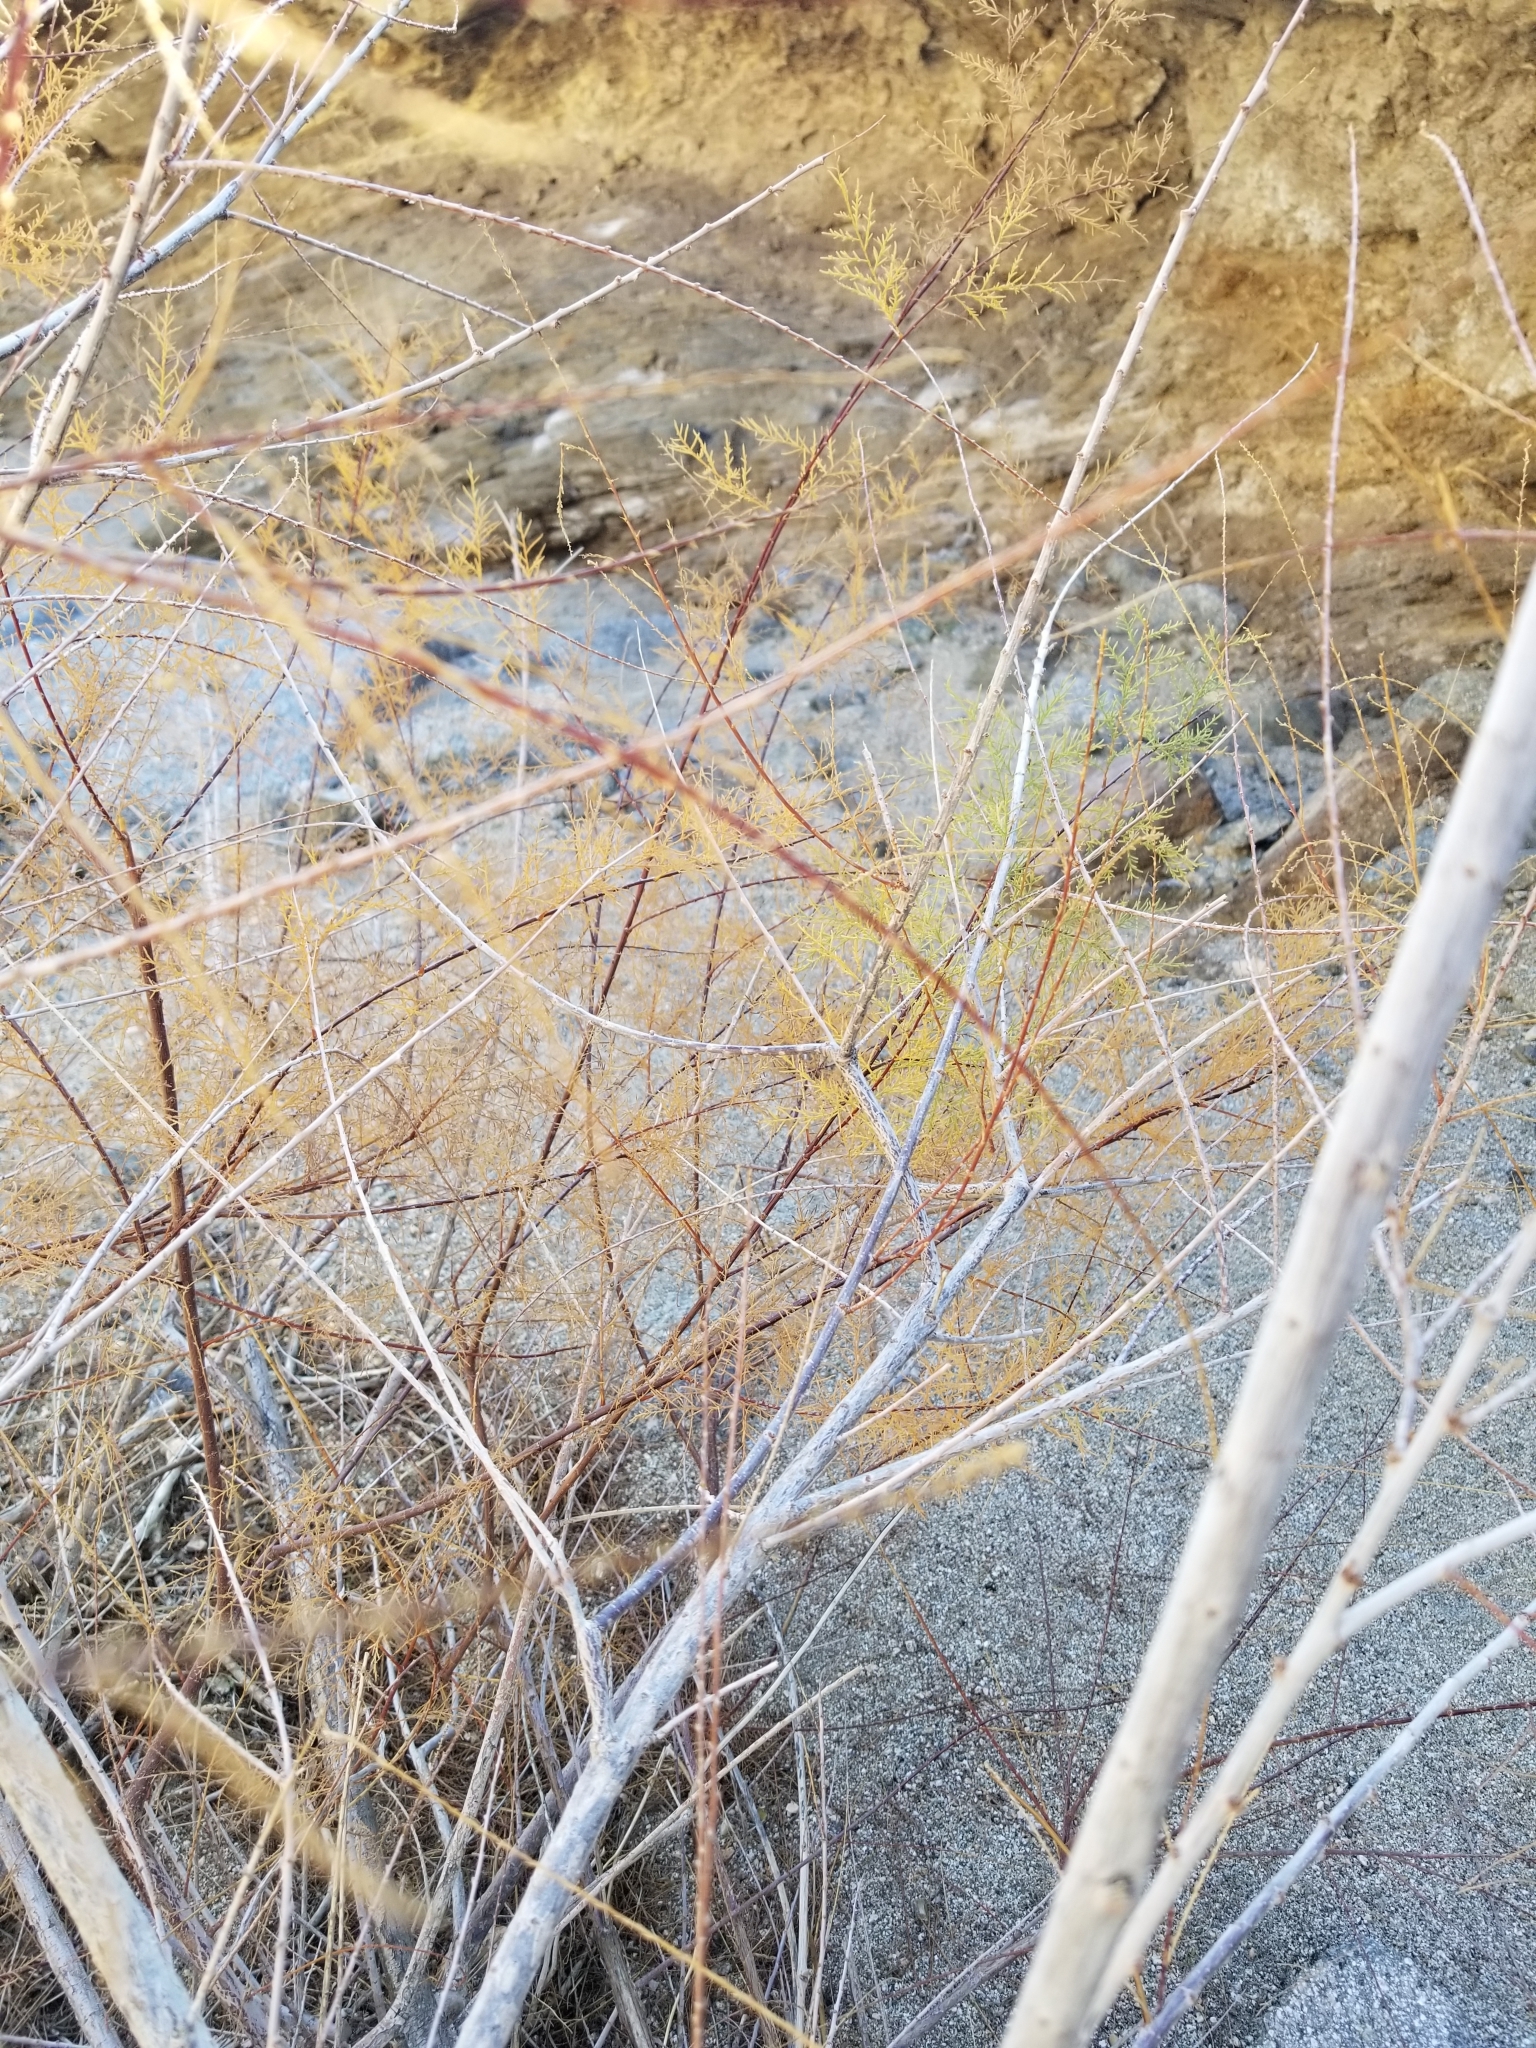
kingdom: Plantae
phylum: Tracheophyta
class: Magnoliopsida
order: Caryophyllales
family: Tamaricaceae
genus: Tamarix
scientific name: Tamarix ramosissima
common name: Pink tamarisk
